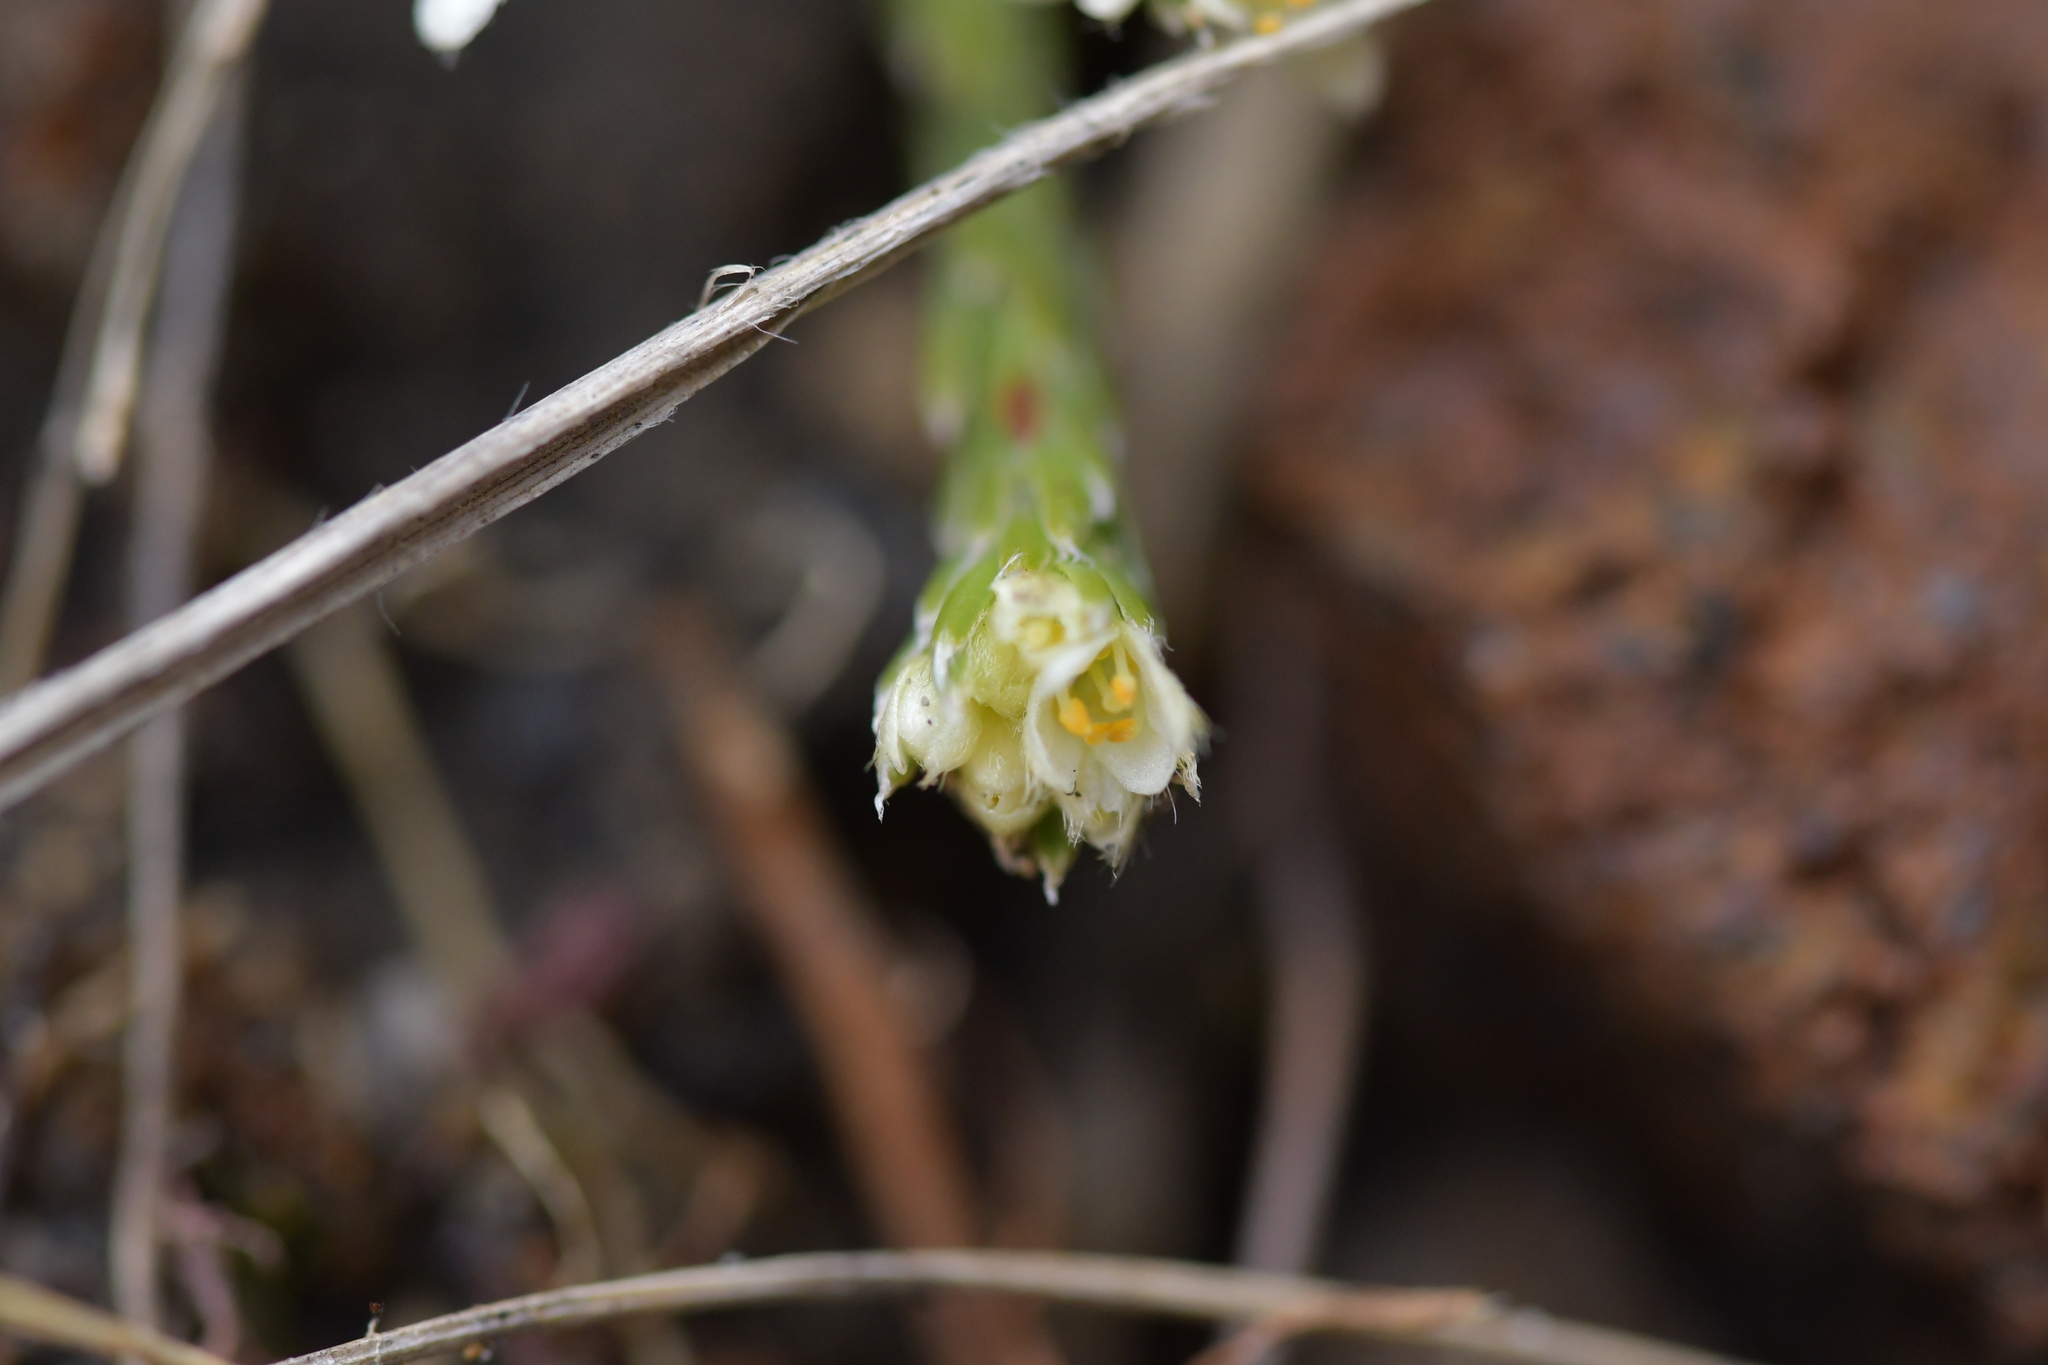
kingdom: Plantae
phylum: Tracheophyta
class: Magnoliopsida
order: Malvales
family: Thymelaeaceae
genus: Kelleria
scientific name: Kelleria dieffenbachii
